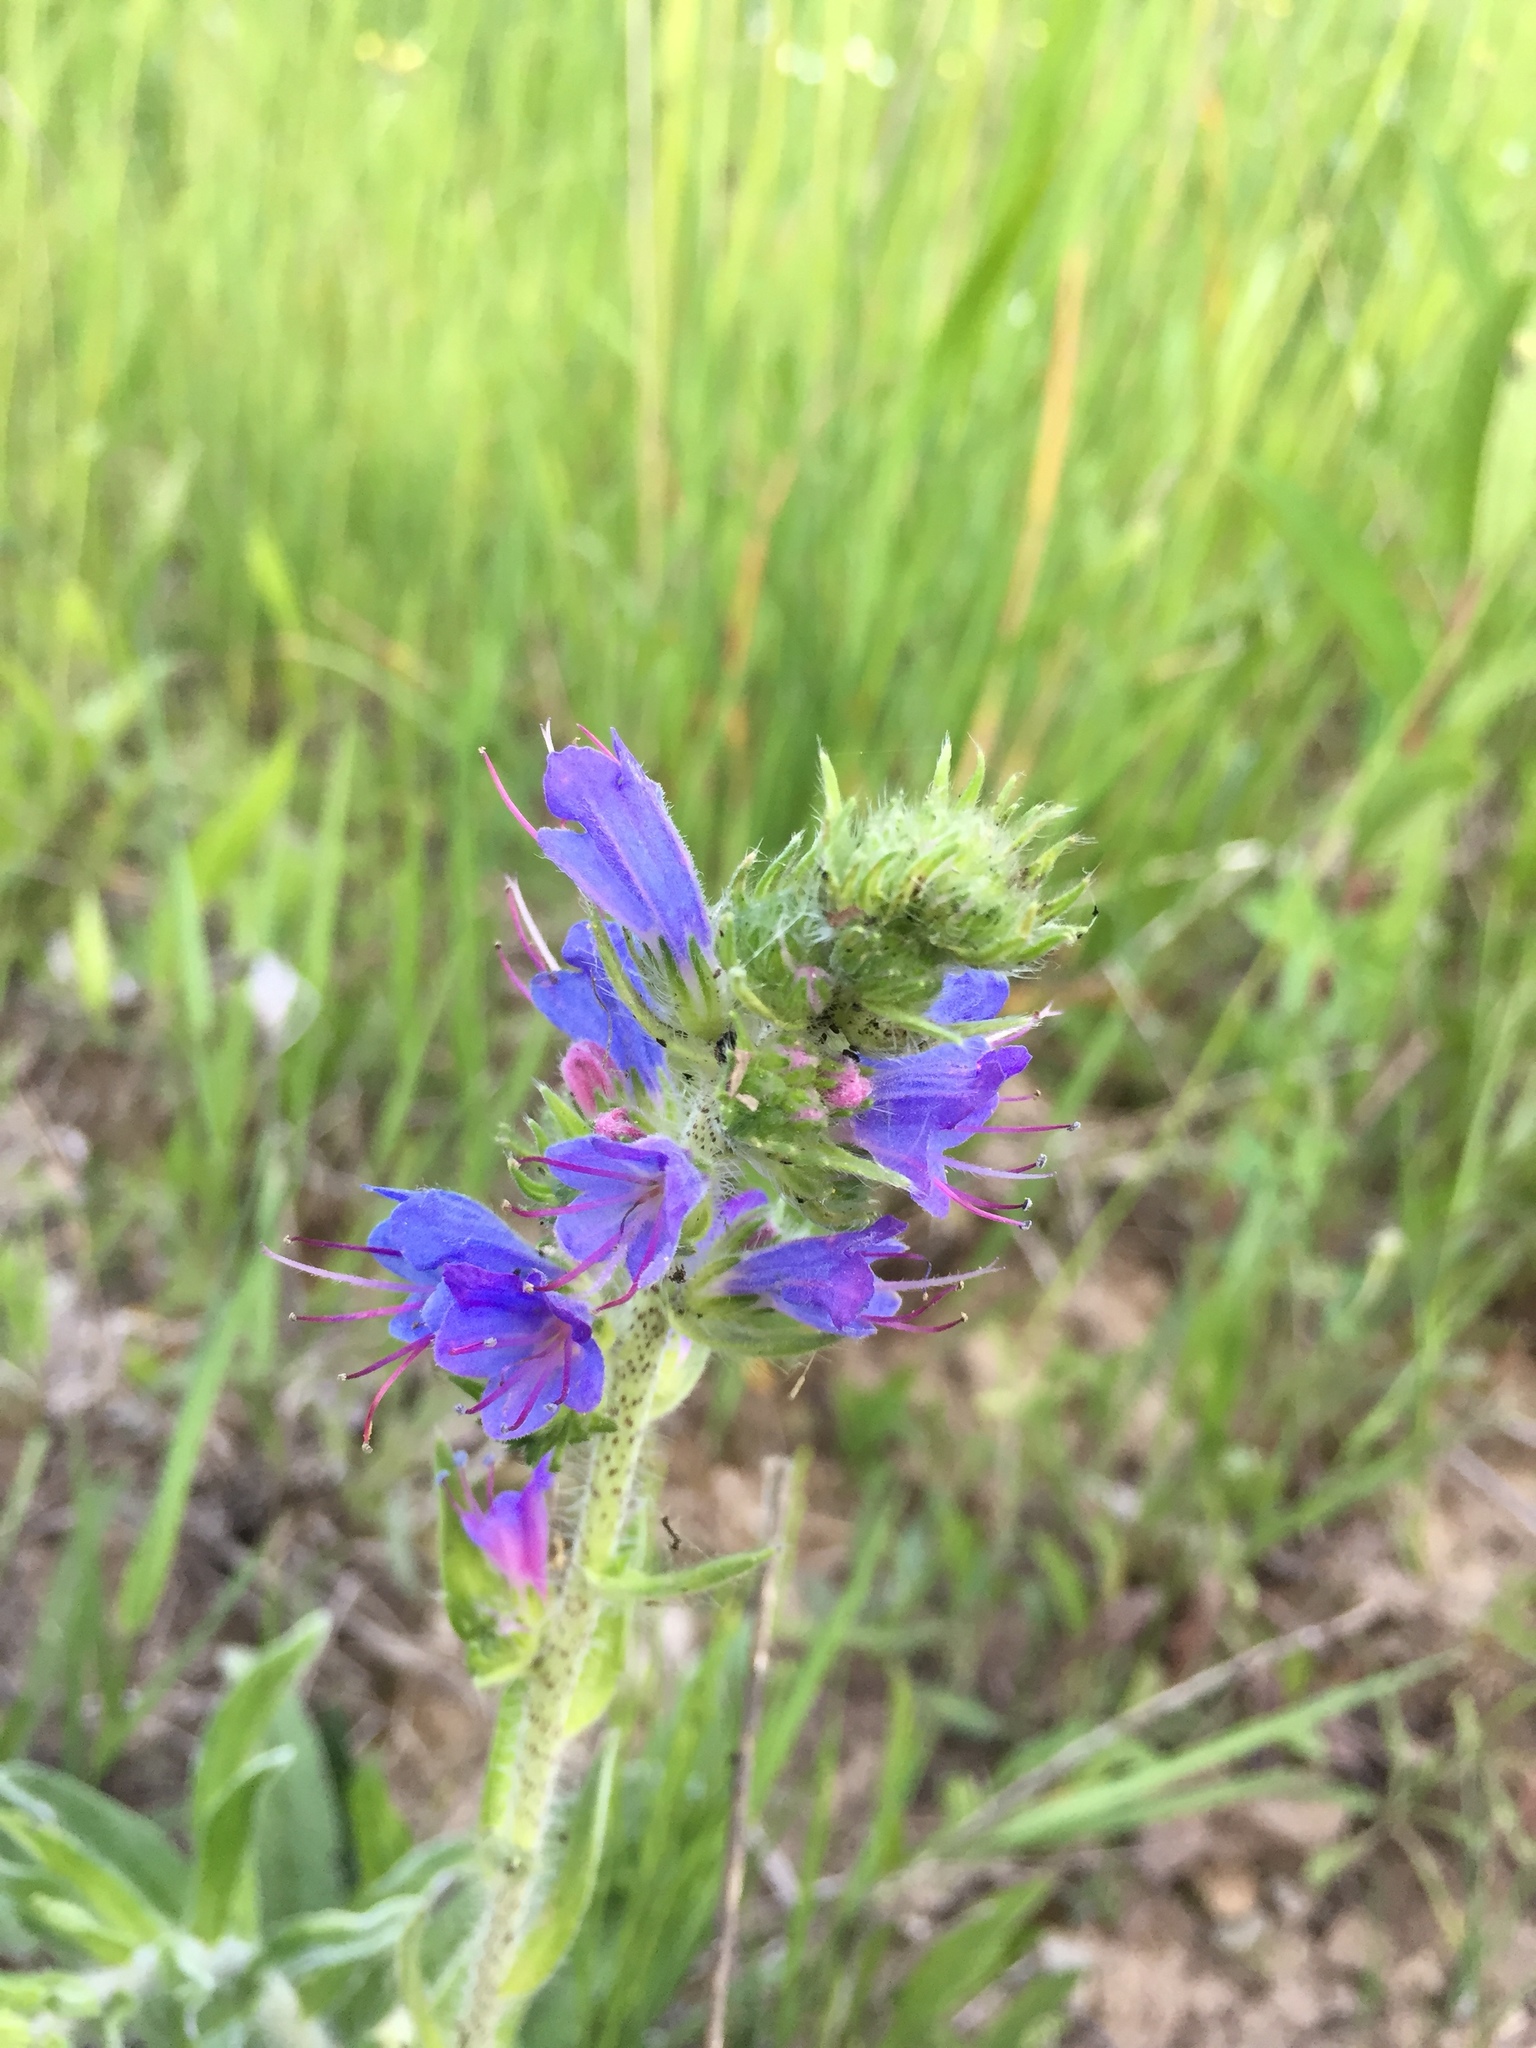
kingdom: Plantae
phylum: Tracheophyta
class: Magnoliopsida
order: Boraginales
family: Boraginaceae
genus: Echium
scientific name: Echium vulgare
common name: Common viper's bugloss
